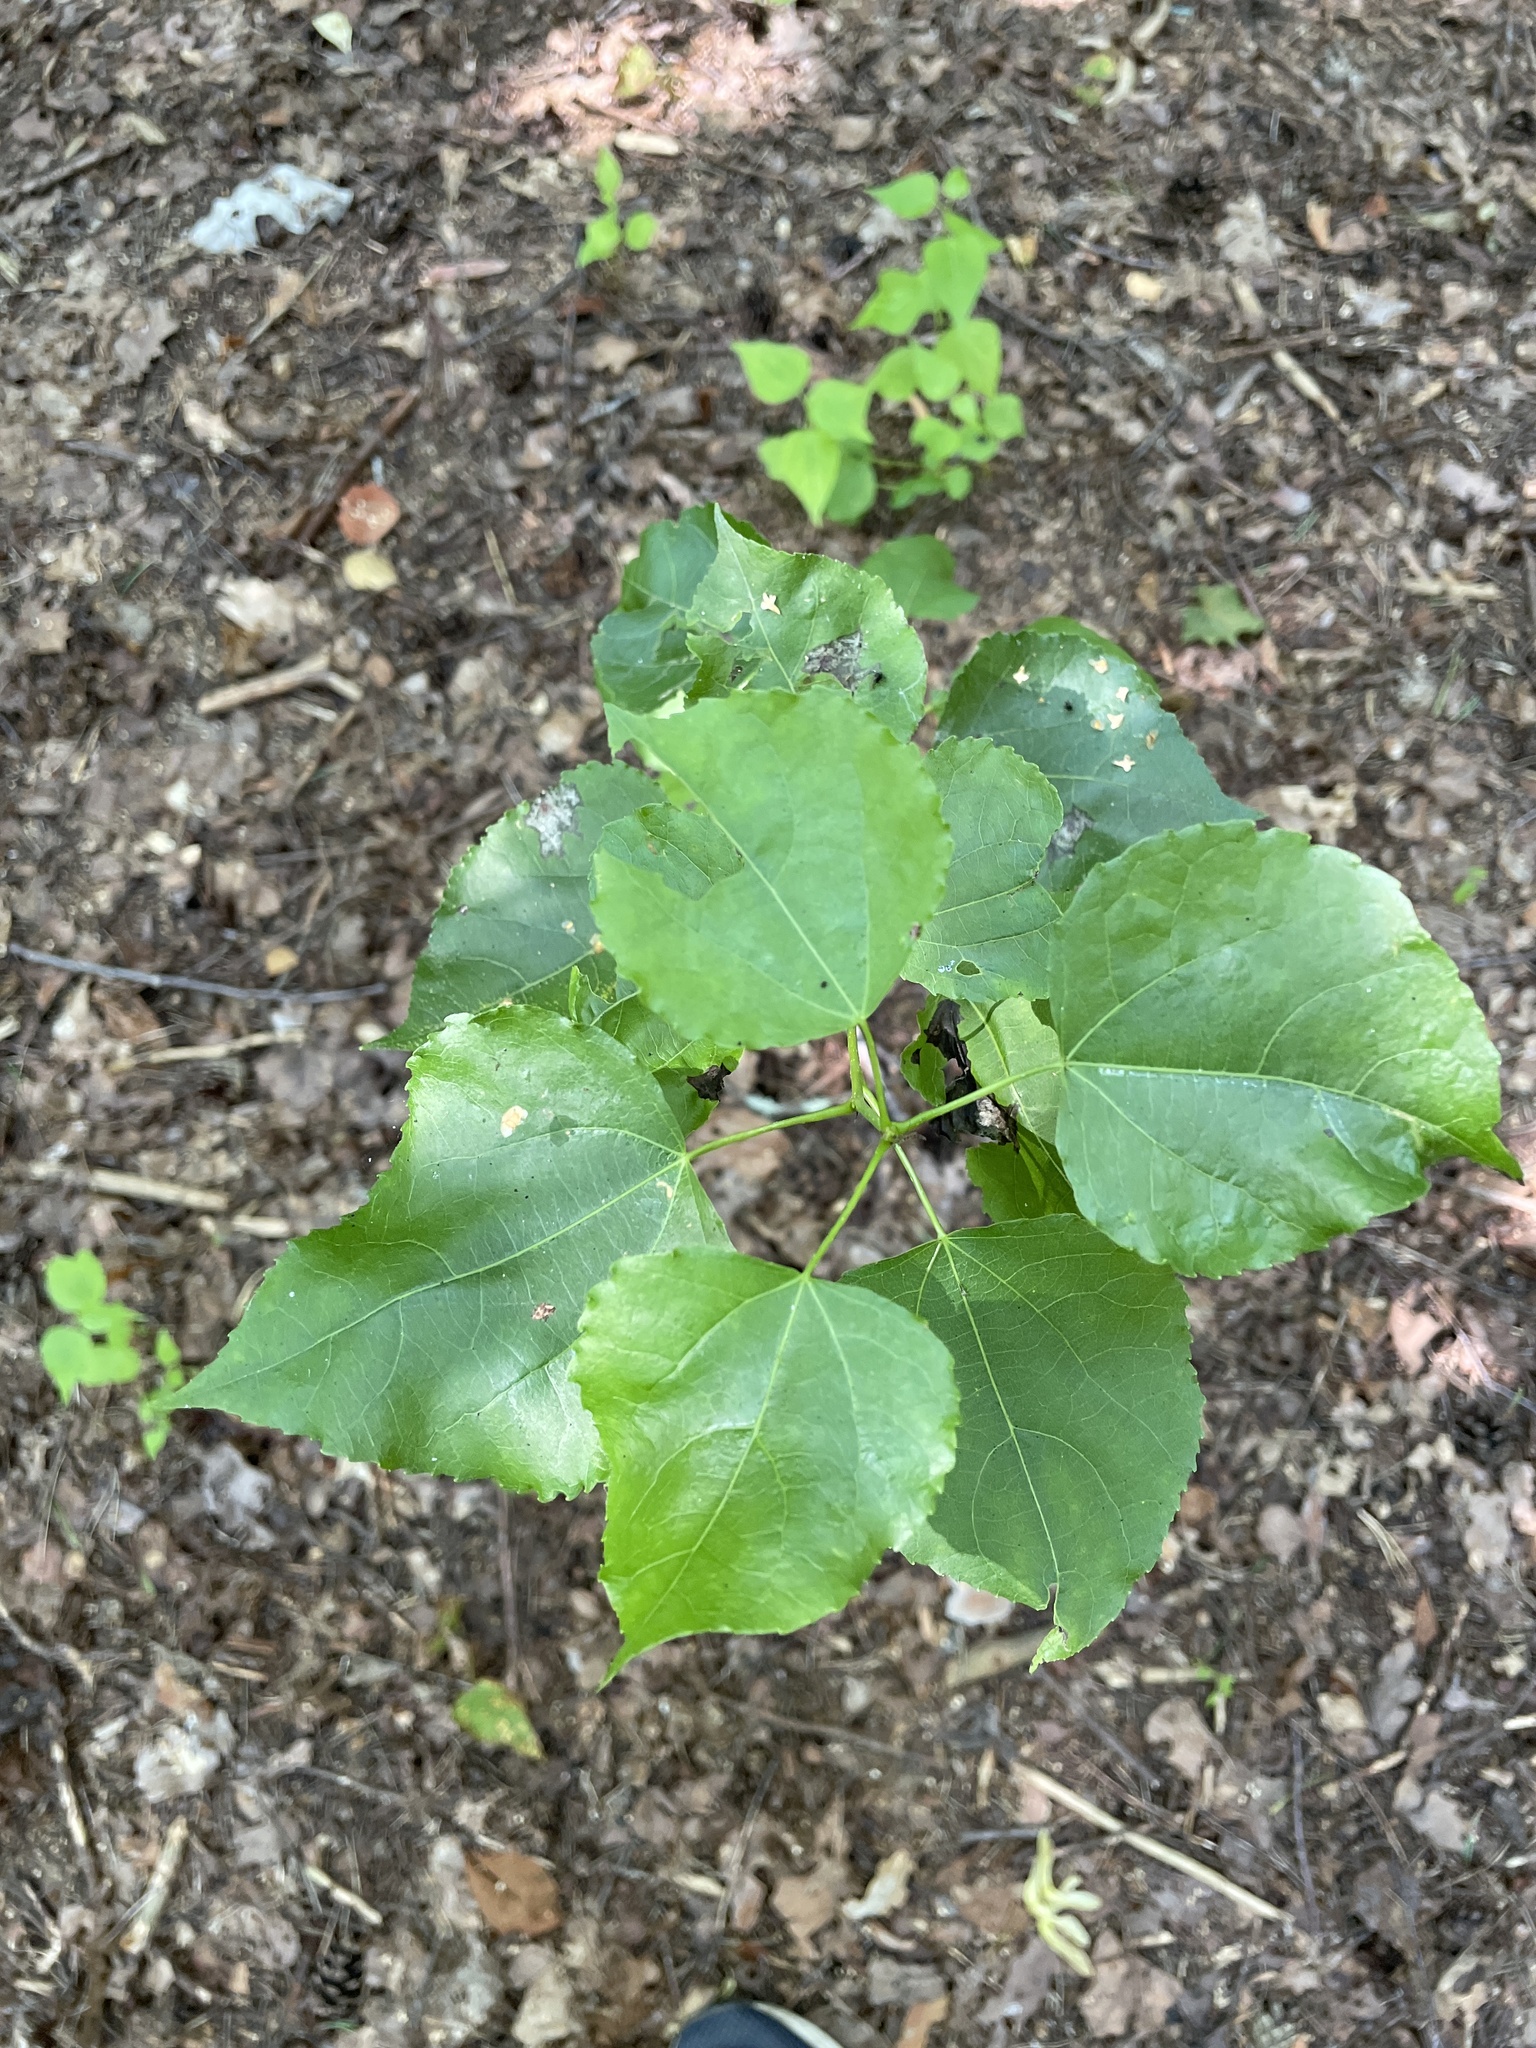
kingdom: Plantae
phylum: Tracheophyta
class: Magnoliopsida
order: Malpighiales
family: Salicaceae
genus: Populus
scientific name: Populus tremula
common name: European aspen
